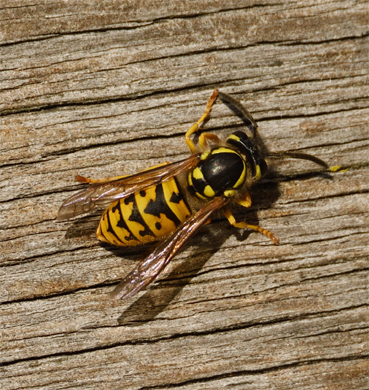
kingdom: Animalia
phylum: Arthropoda
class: Insecta
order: Hymenoptera
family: Vespidae
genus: Vespula
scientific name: Vespula germanica
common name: German wasp
